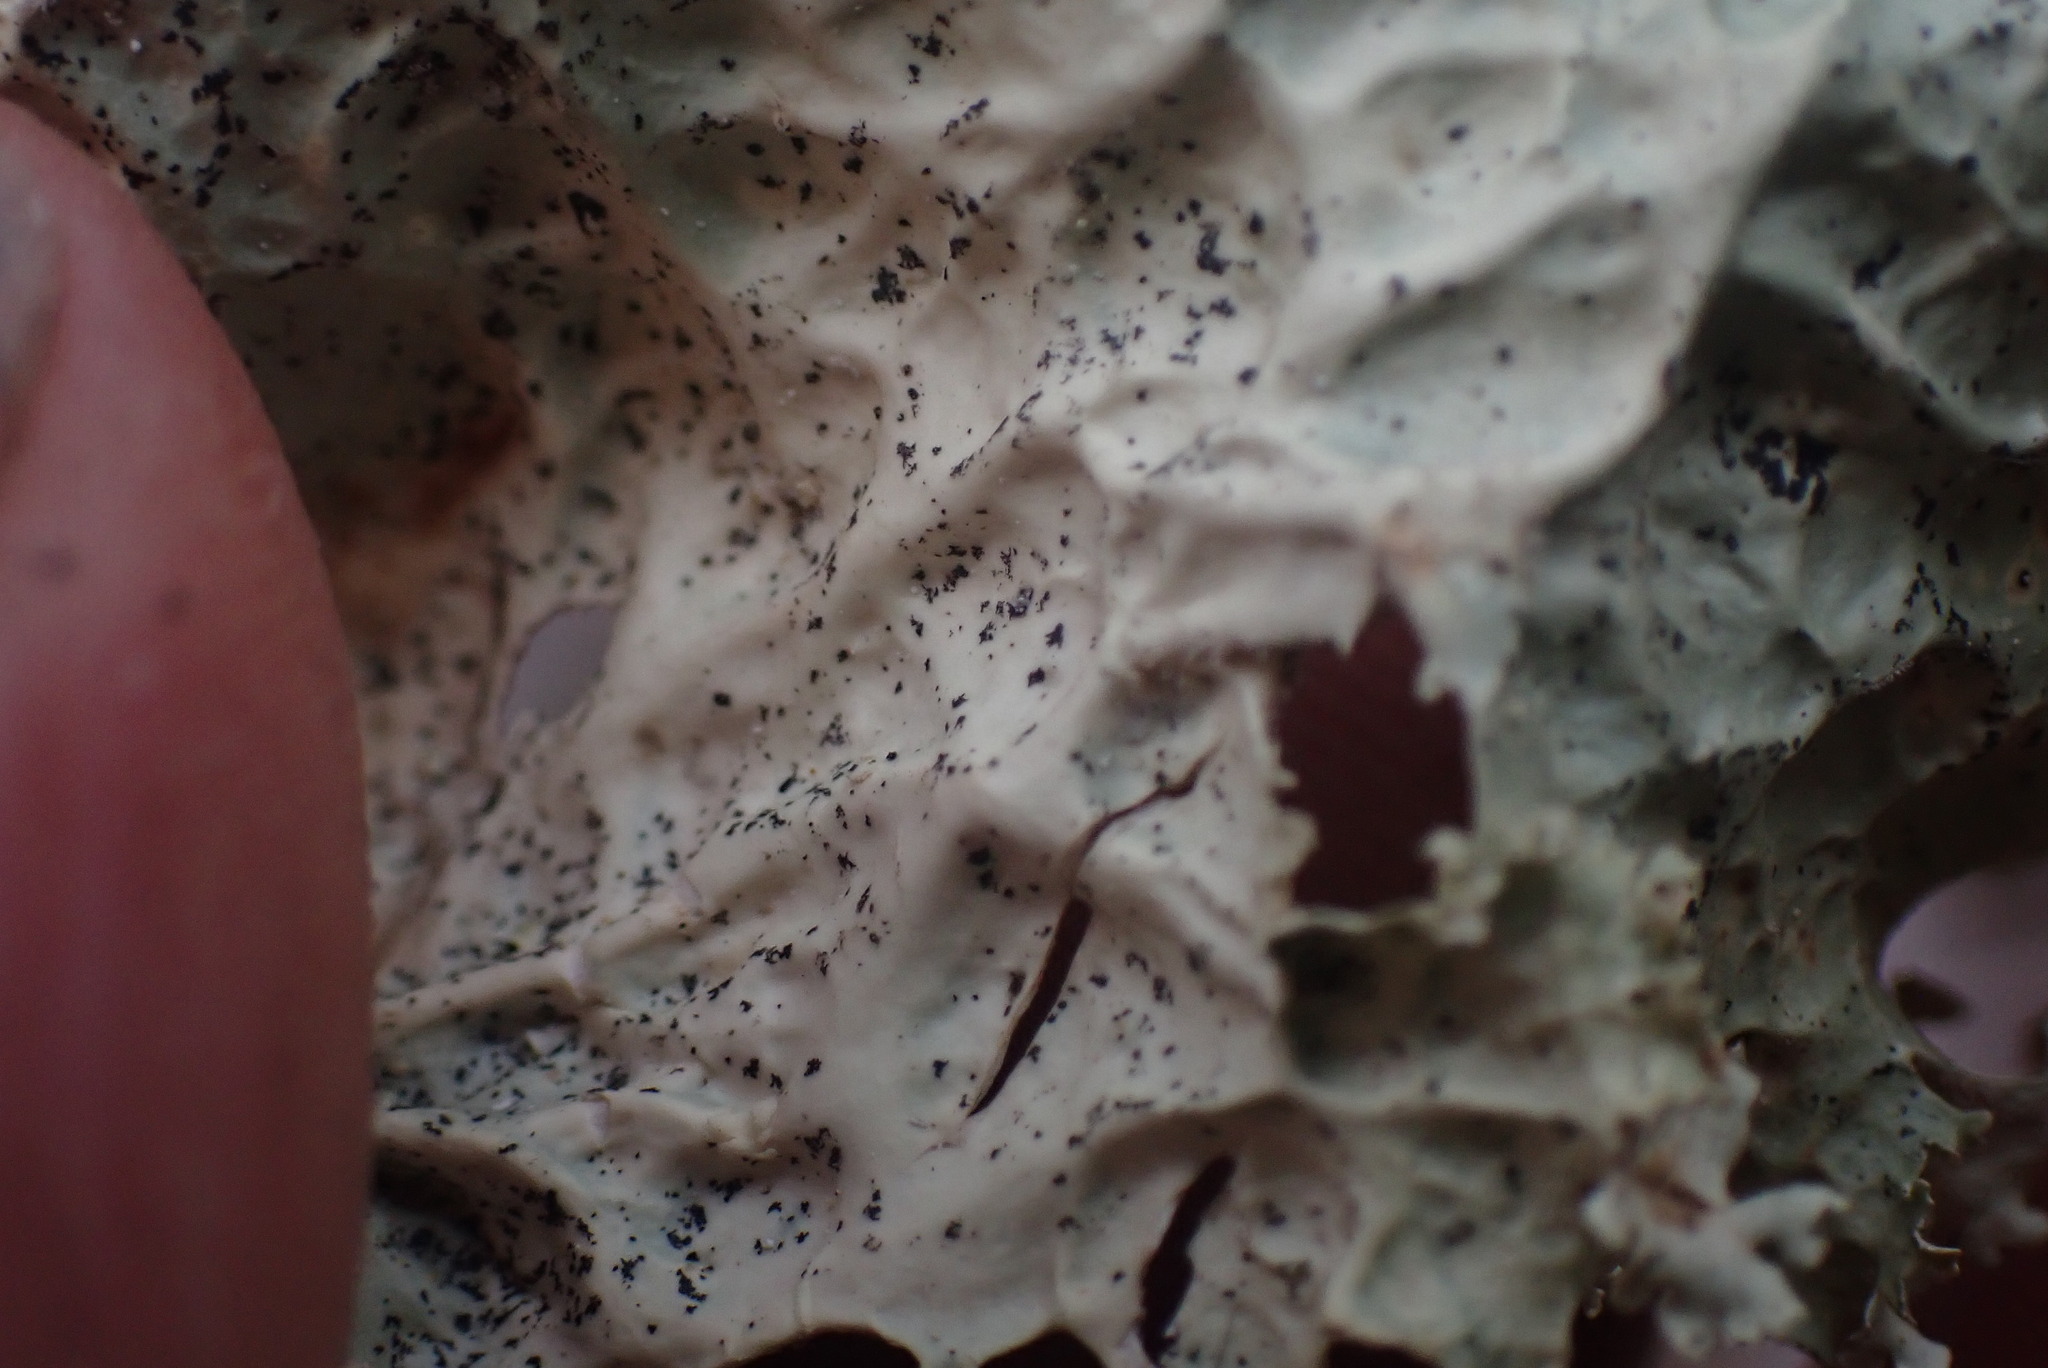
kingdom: Fungi
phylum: Ascomycota
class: Lecanoromycetes
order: Peltigerales
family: Lobariaceae
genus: Lobaria
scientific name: Lobaria oregana
